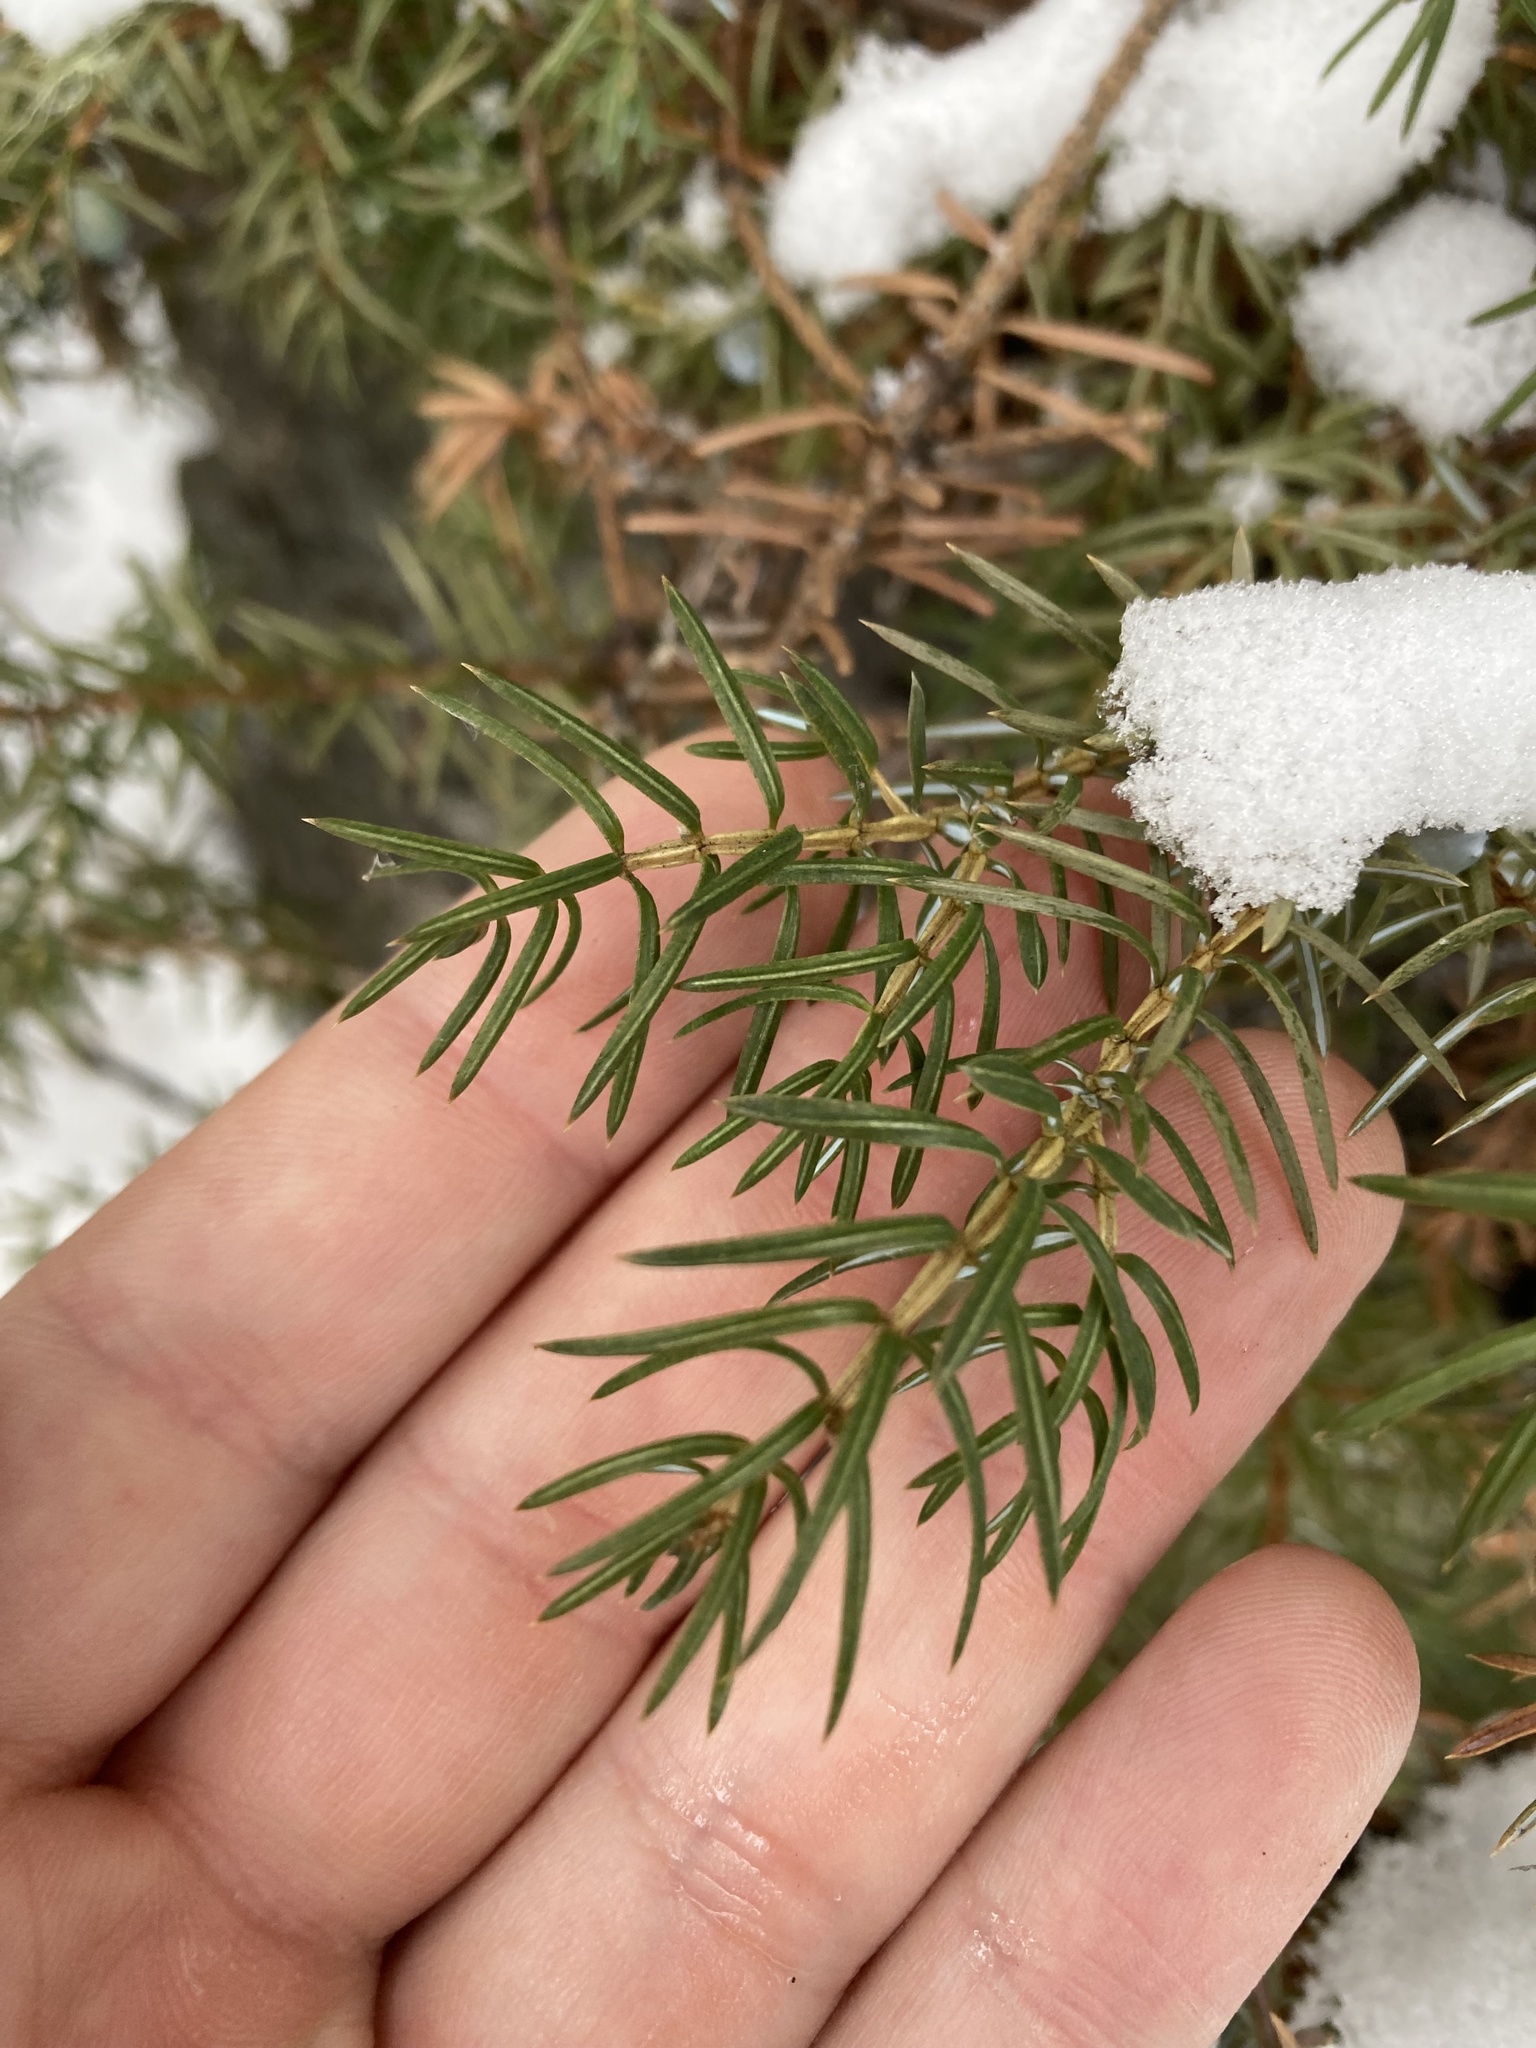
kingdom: Plantae
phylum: Tracheophyta
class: Pinopsida
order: Pinales
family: Cupressaceae
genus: Juniperus
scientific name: Juniperus communis
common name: Common juniper
